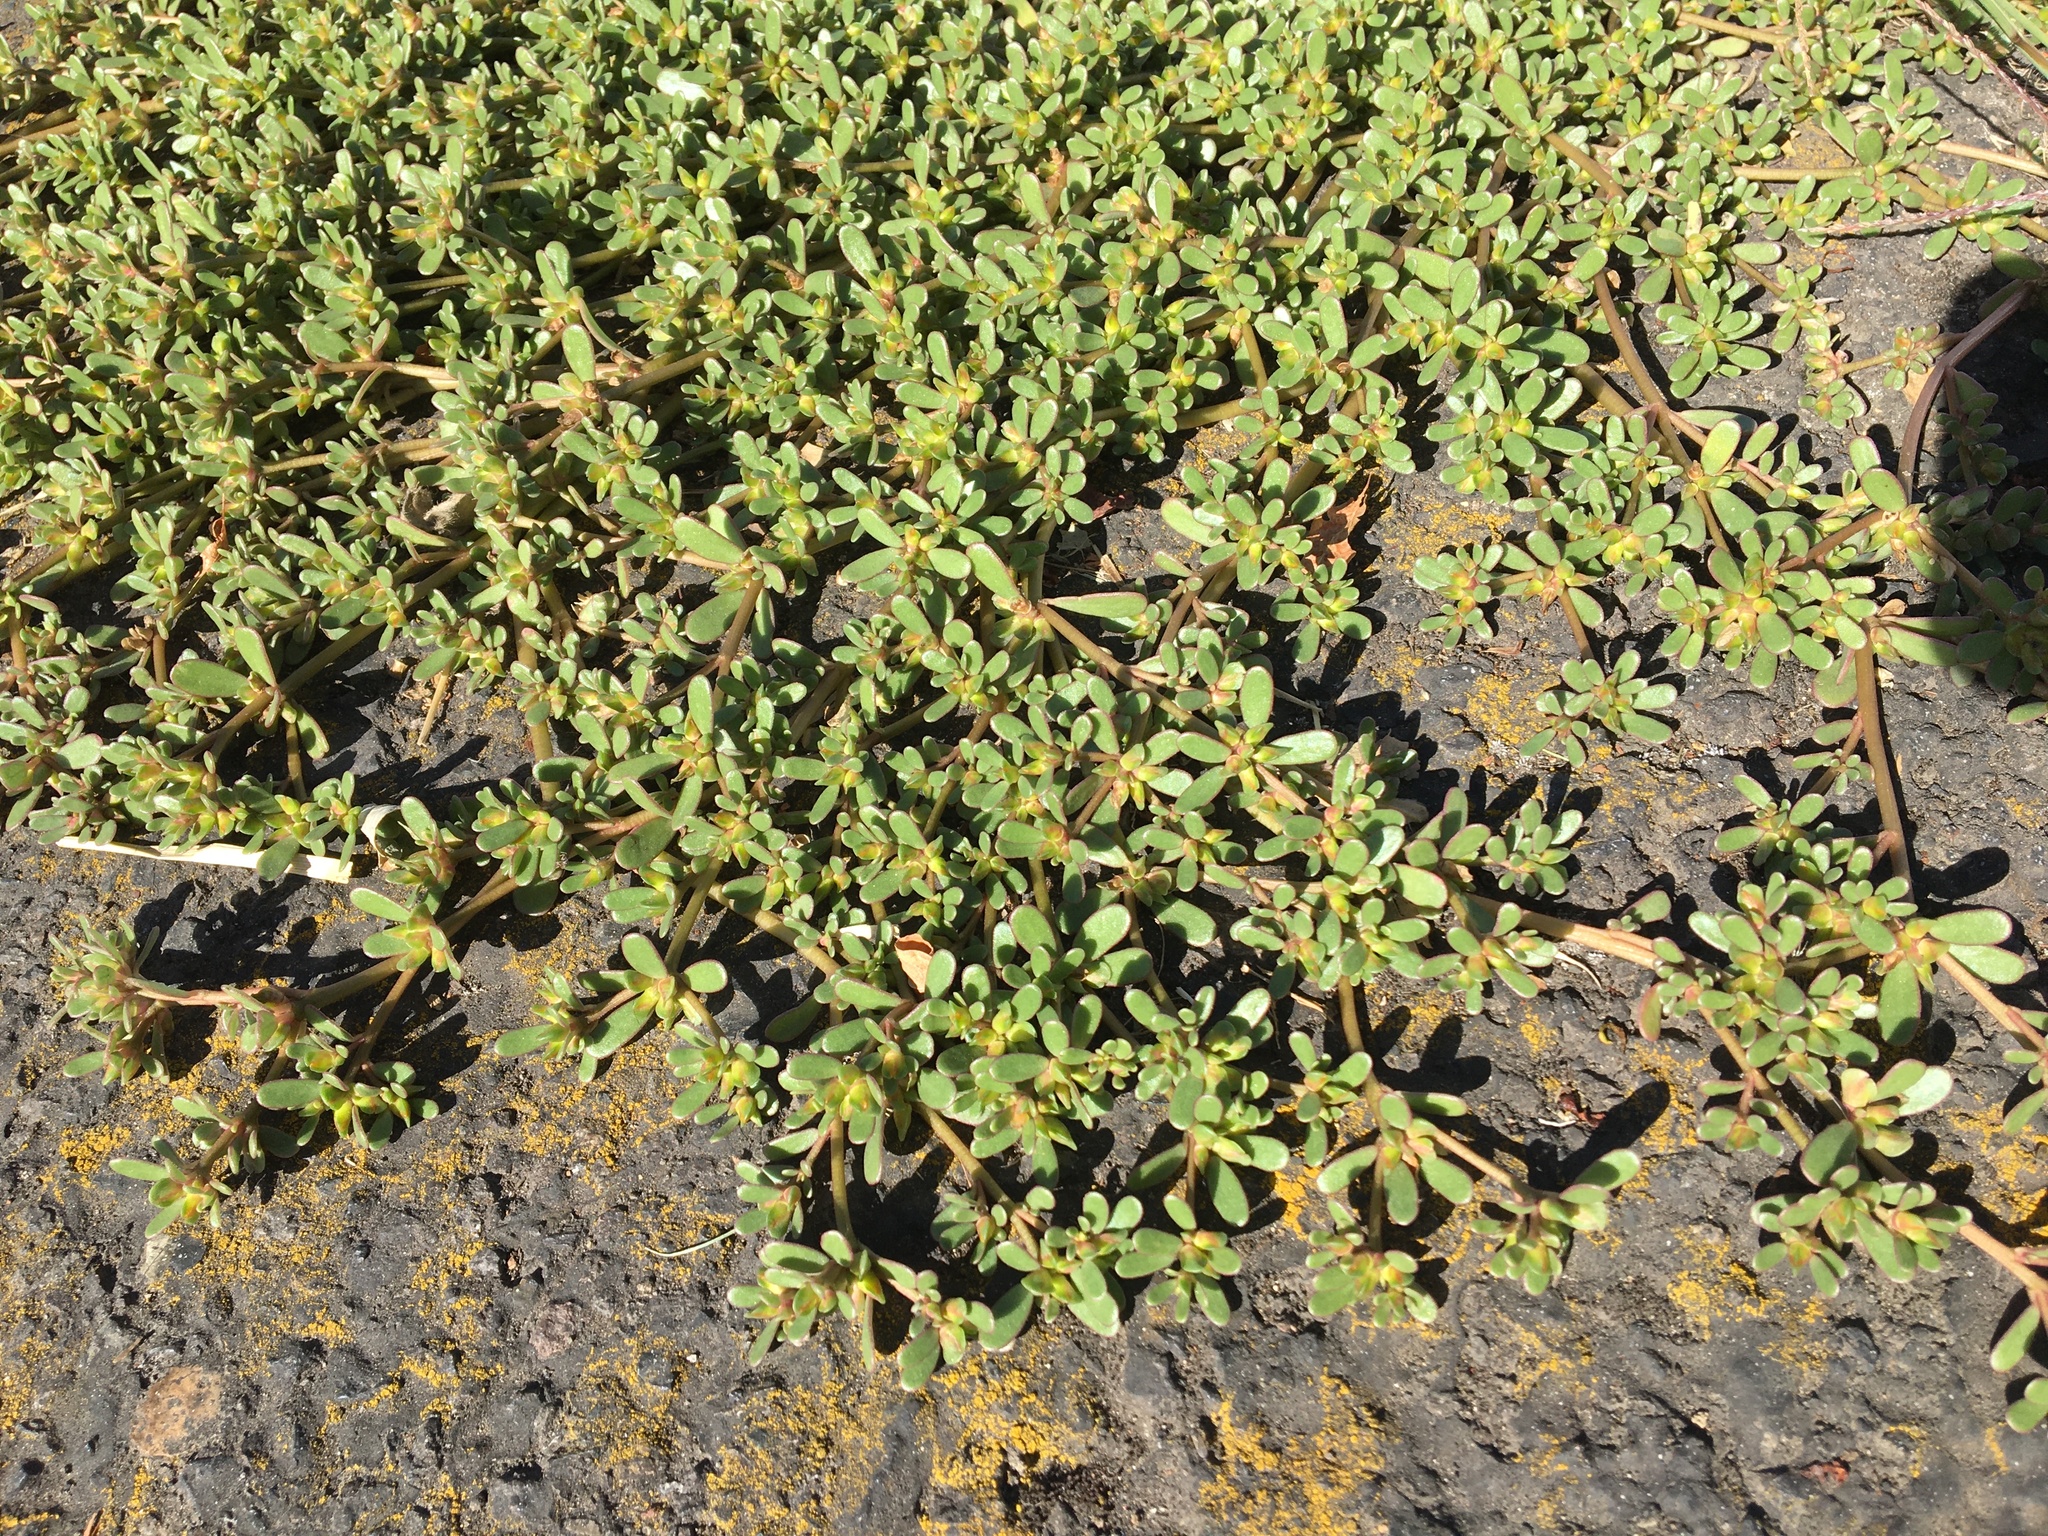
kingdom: Plantae
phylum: Tracheophyta
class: Magnoliopsida
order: Caryophyllales
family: Portulacaceae
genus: Portulaca
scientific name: Portulaca oleracea
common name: Common purslane
